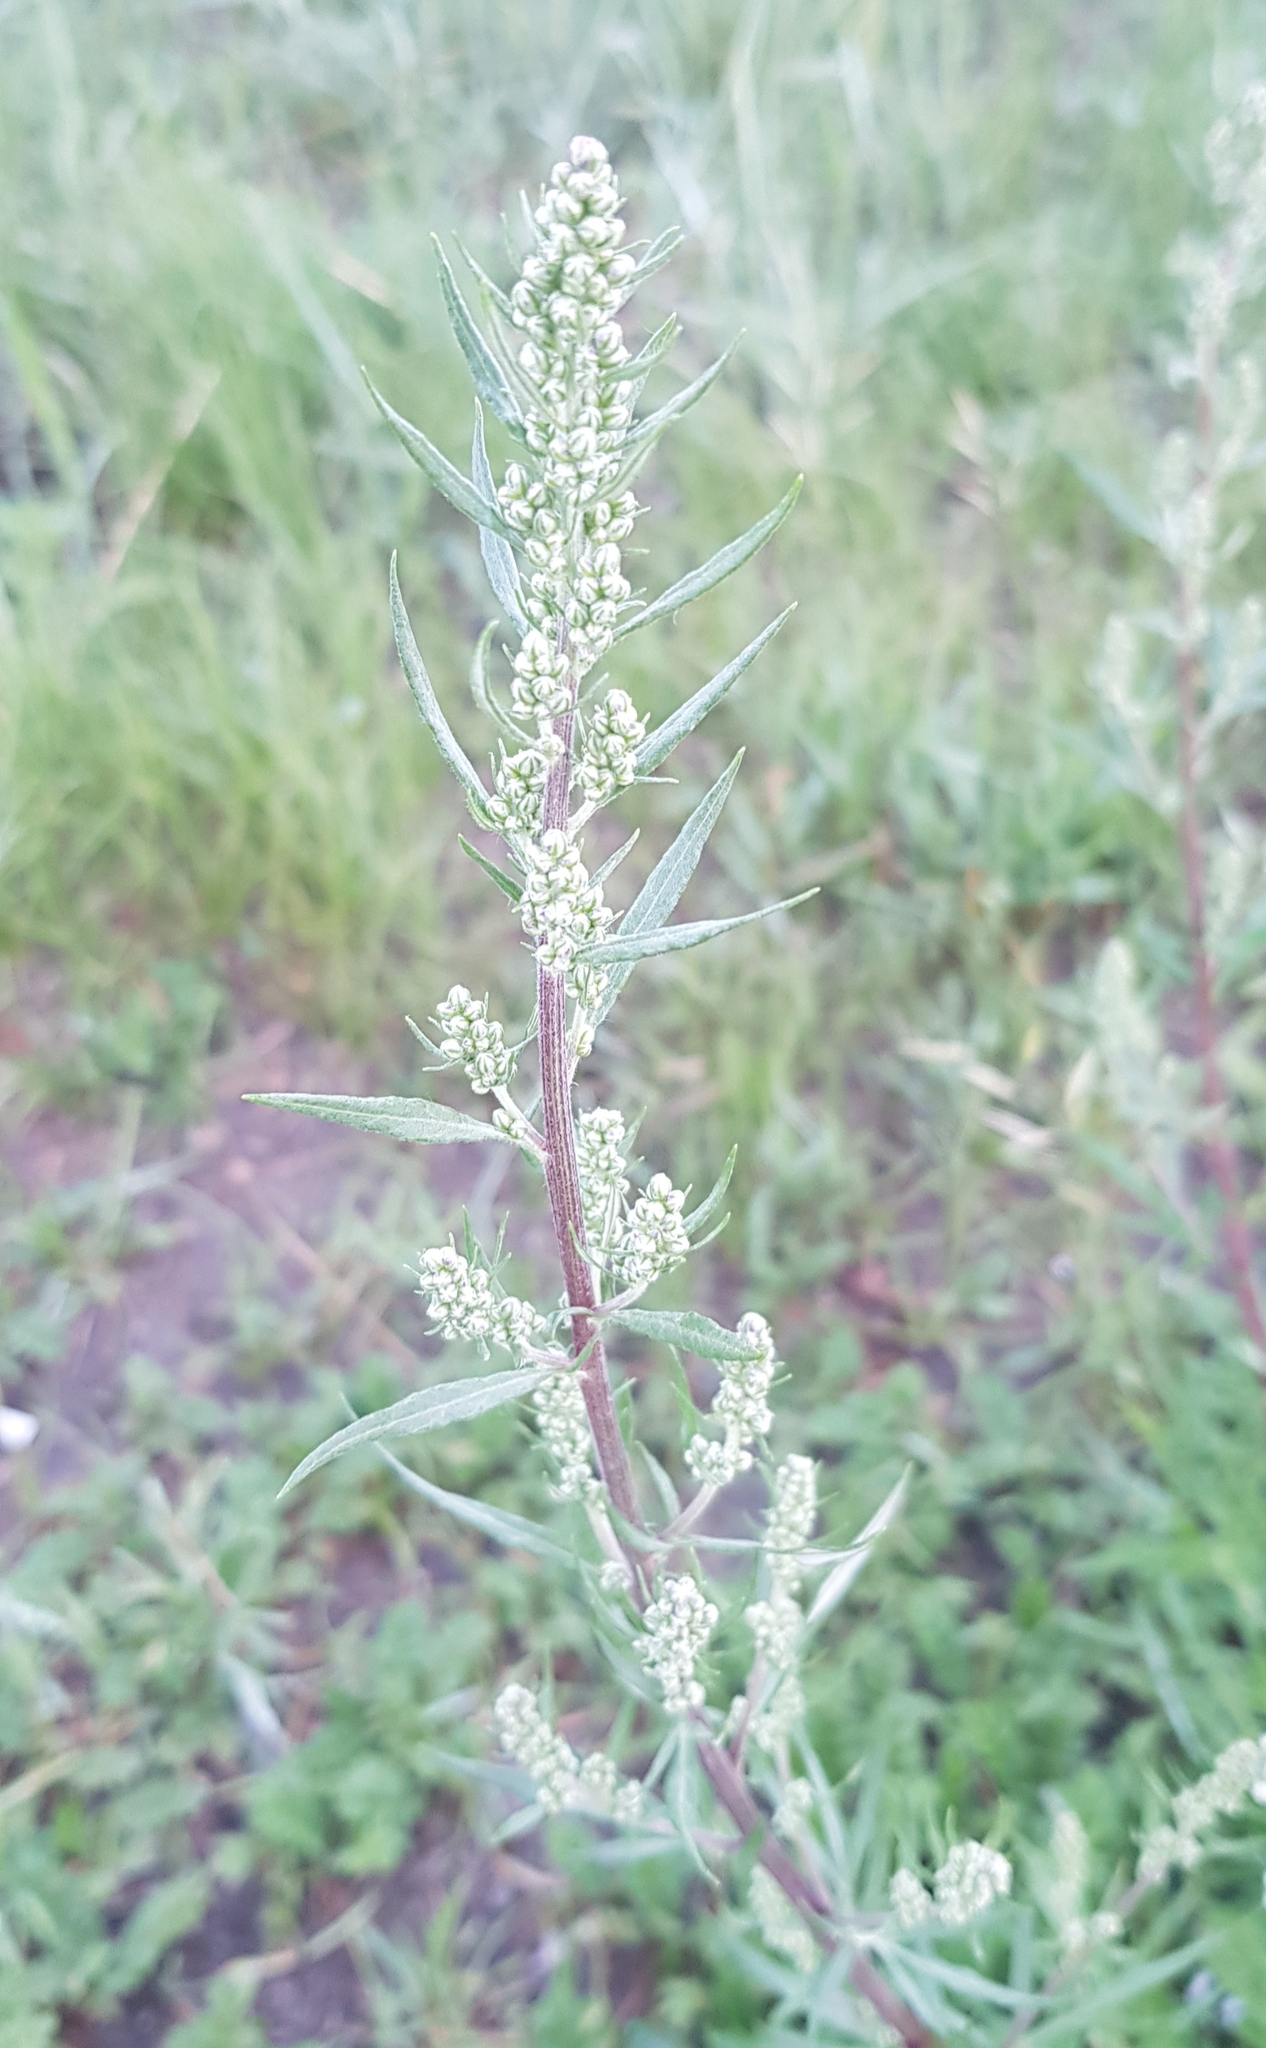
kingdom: Plantae
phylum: Tracheophyta
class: Magnoliopsida
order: Asterales
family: Asteraceae
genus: Artemisia
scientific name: Artemisia mongolica
